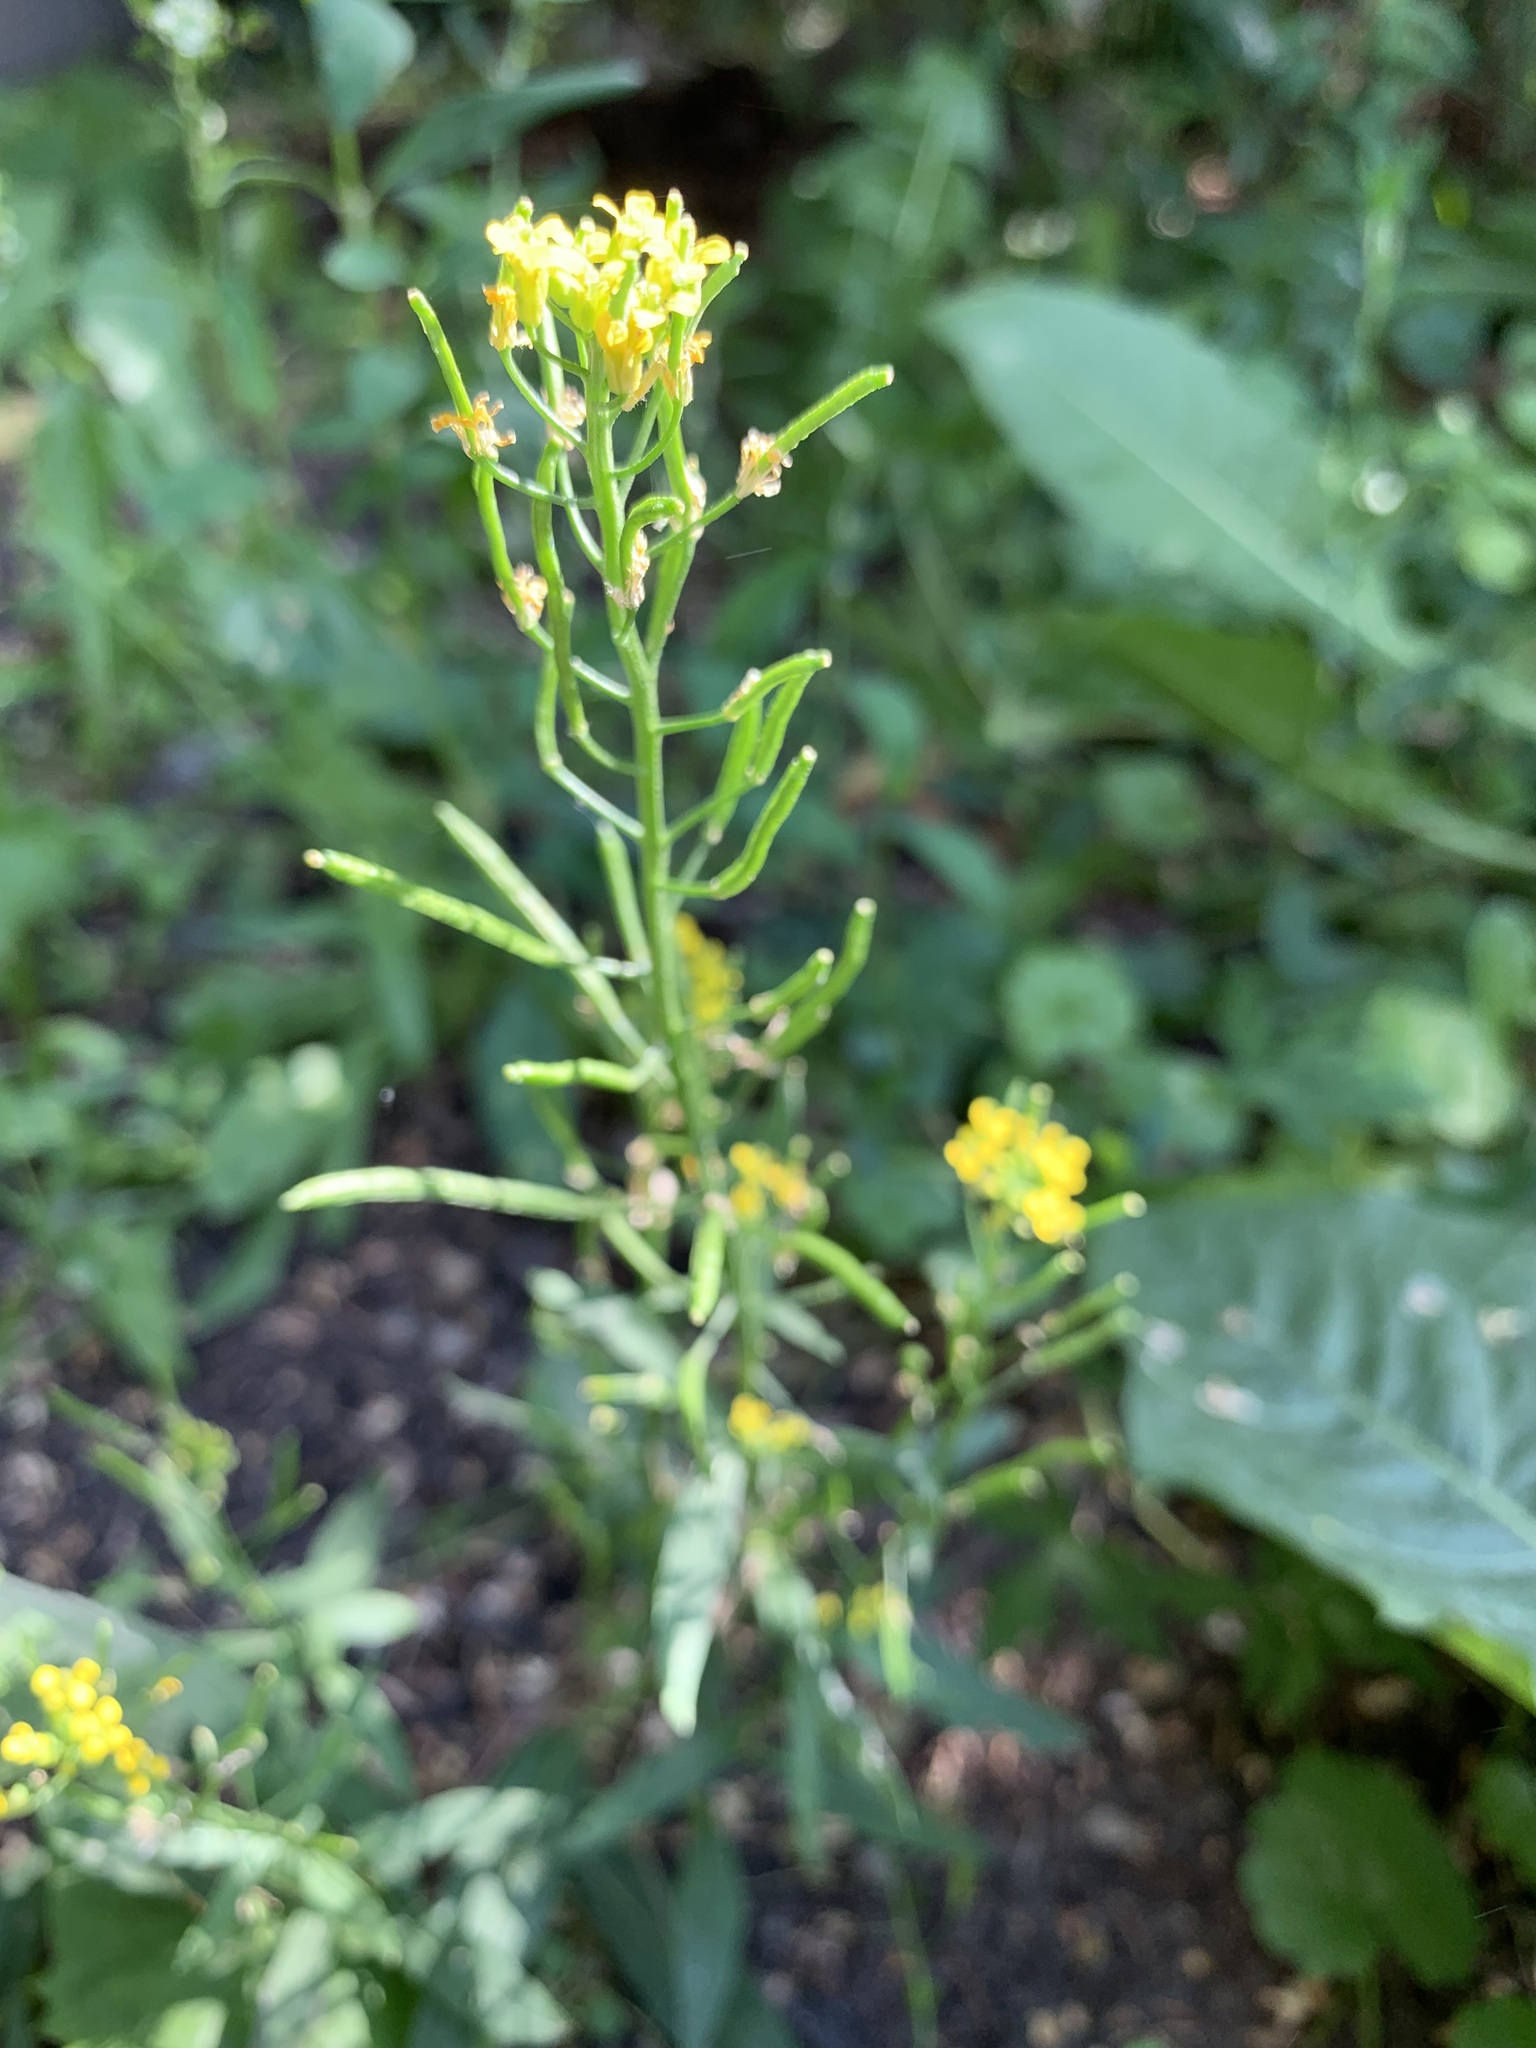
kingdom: Plantae
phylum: Tracheophyta
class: Magnoliopsida
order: Brassicales
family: Brassicaceae
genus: Erysimum
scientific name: Erysimum cheiranthoides
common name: Treacle mustard
